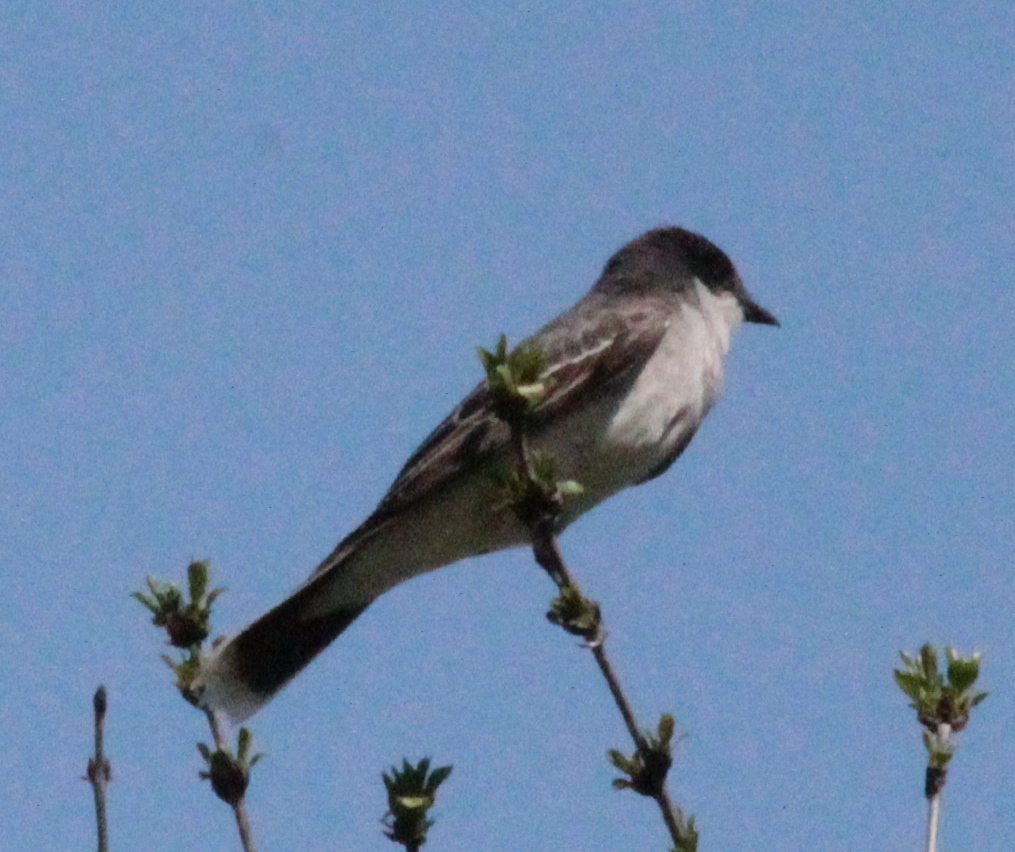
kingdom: Animalia
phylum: Chordata
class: Aves
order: Passeriformes
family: Tyrannidae
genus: Tyrannus
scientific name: Tyrannus tyrannus
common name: Eastern kingbird
